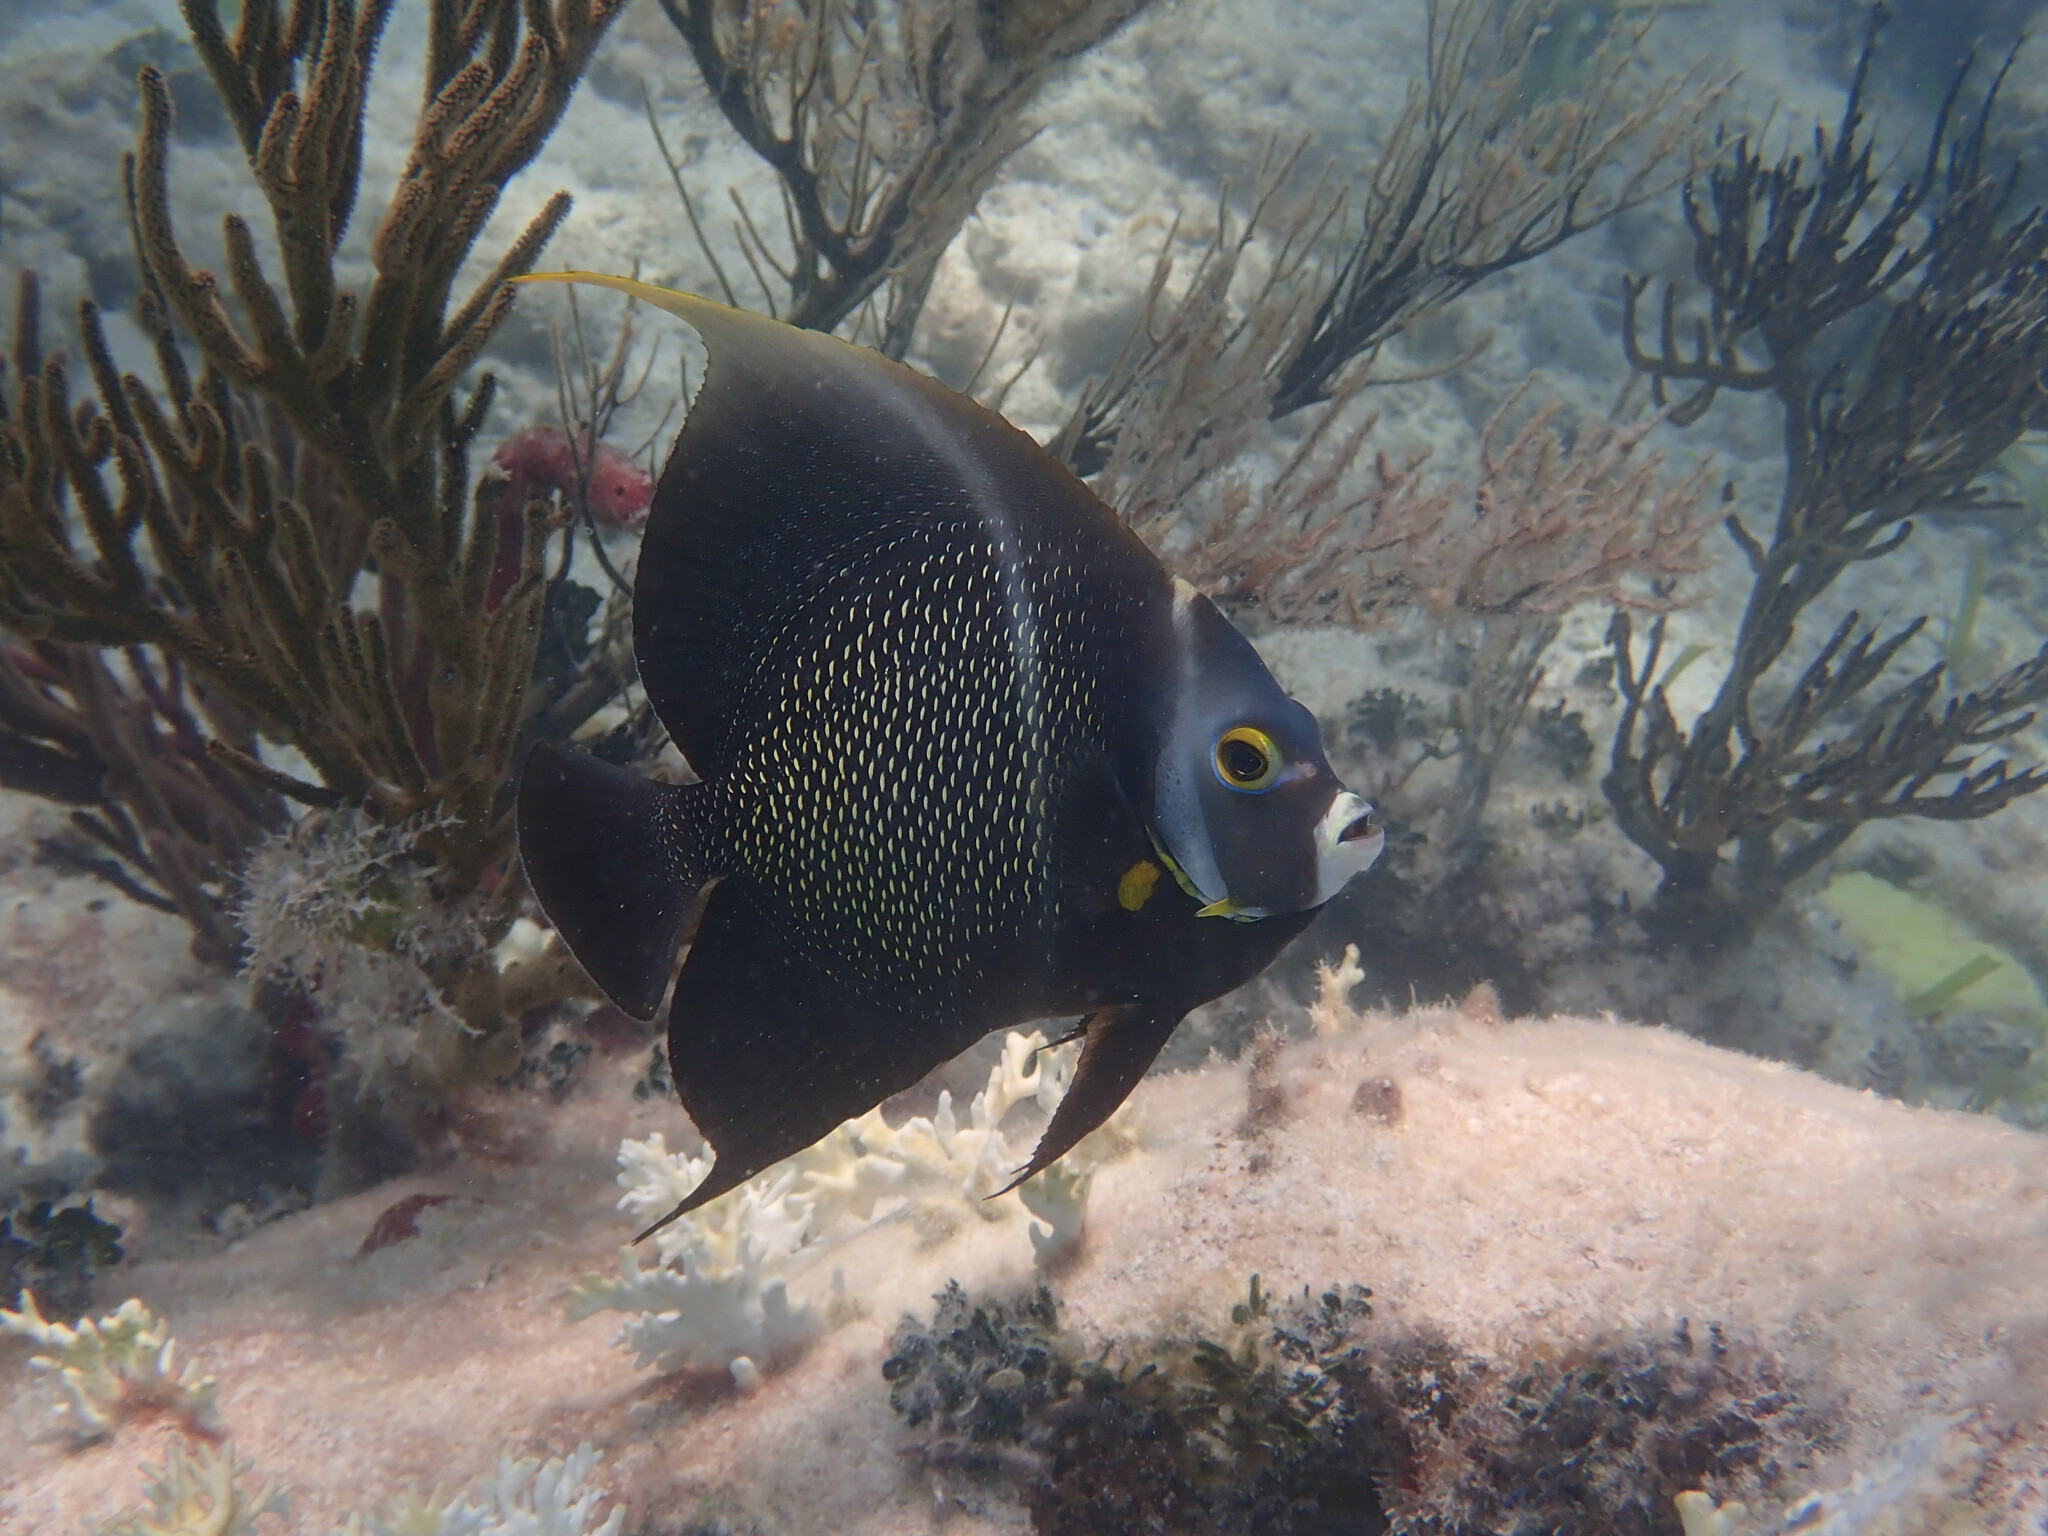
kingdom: Animalia
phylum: Chordata
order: Perciformes
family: Pomacanthidae
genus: Pomacanthus
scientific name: Pomacanthus paru
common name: French angelfish
